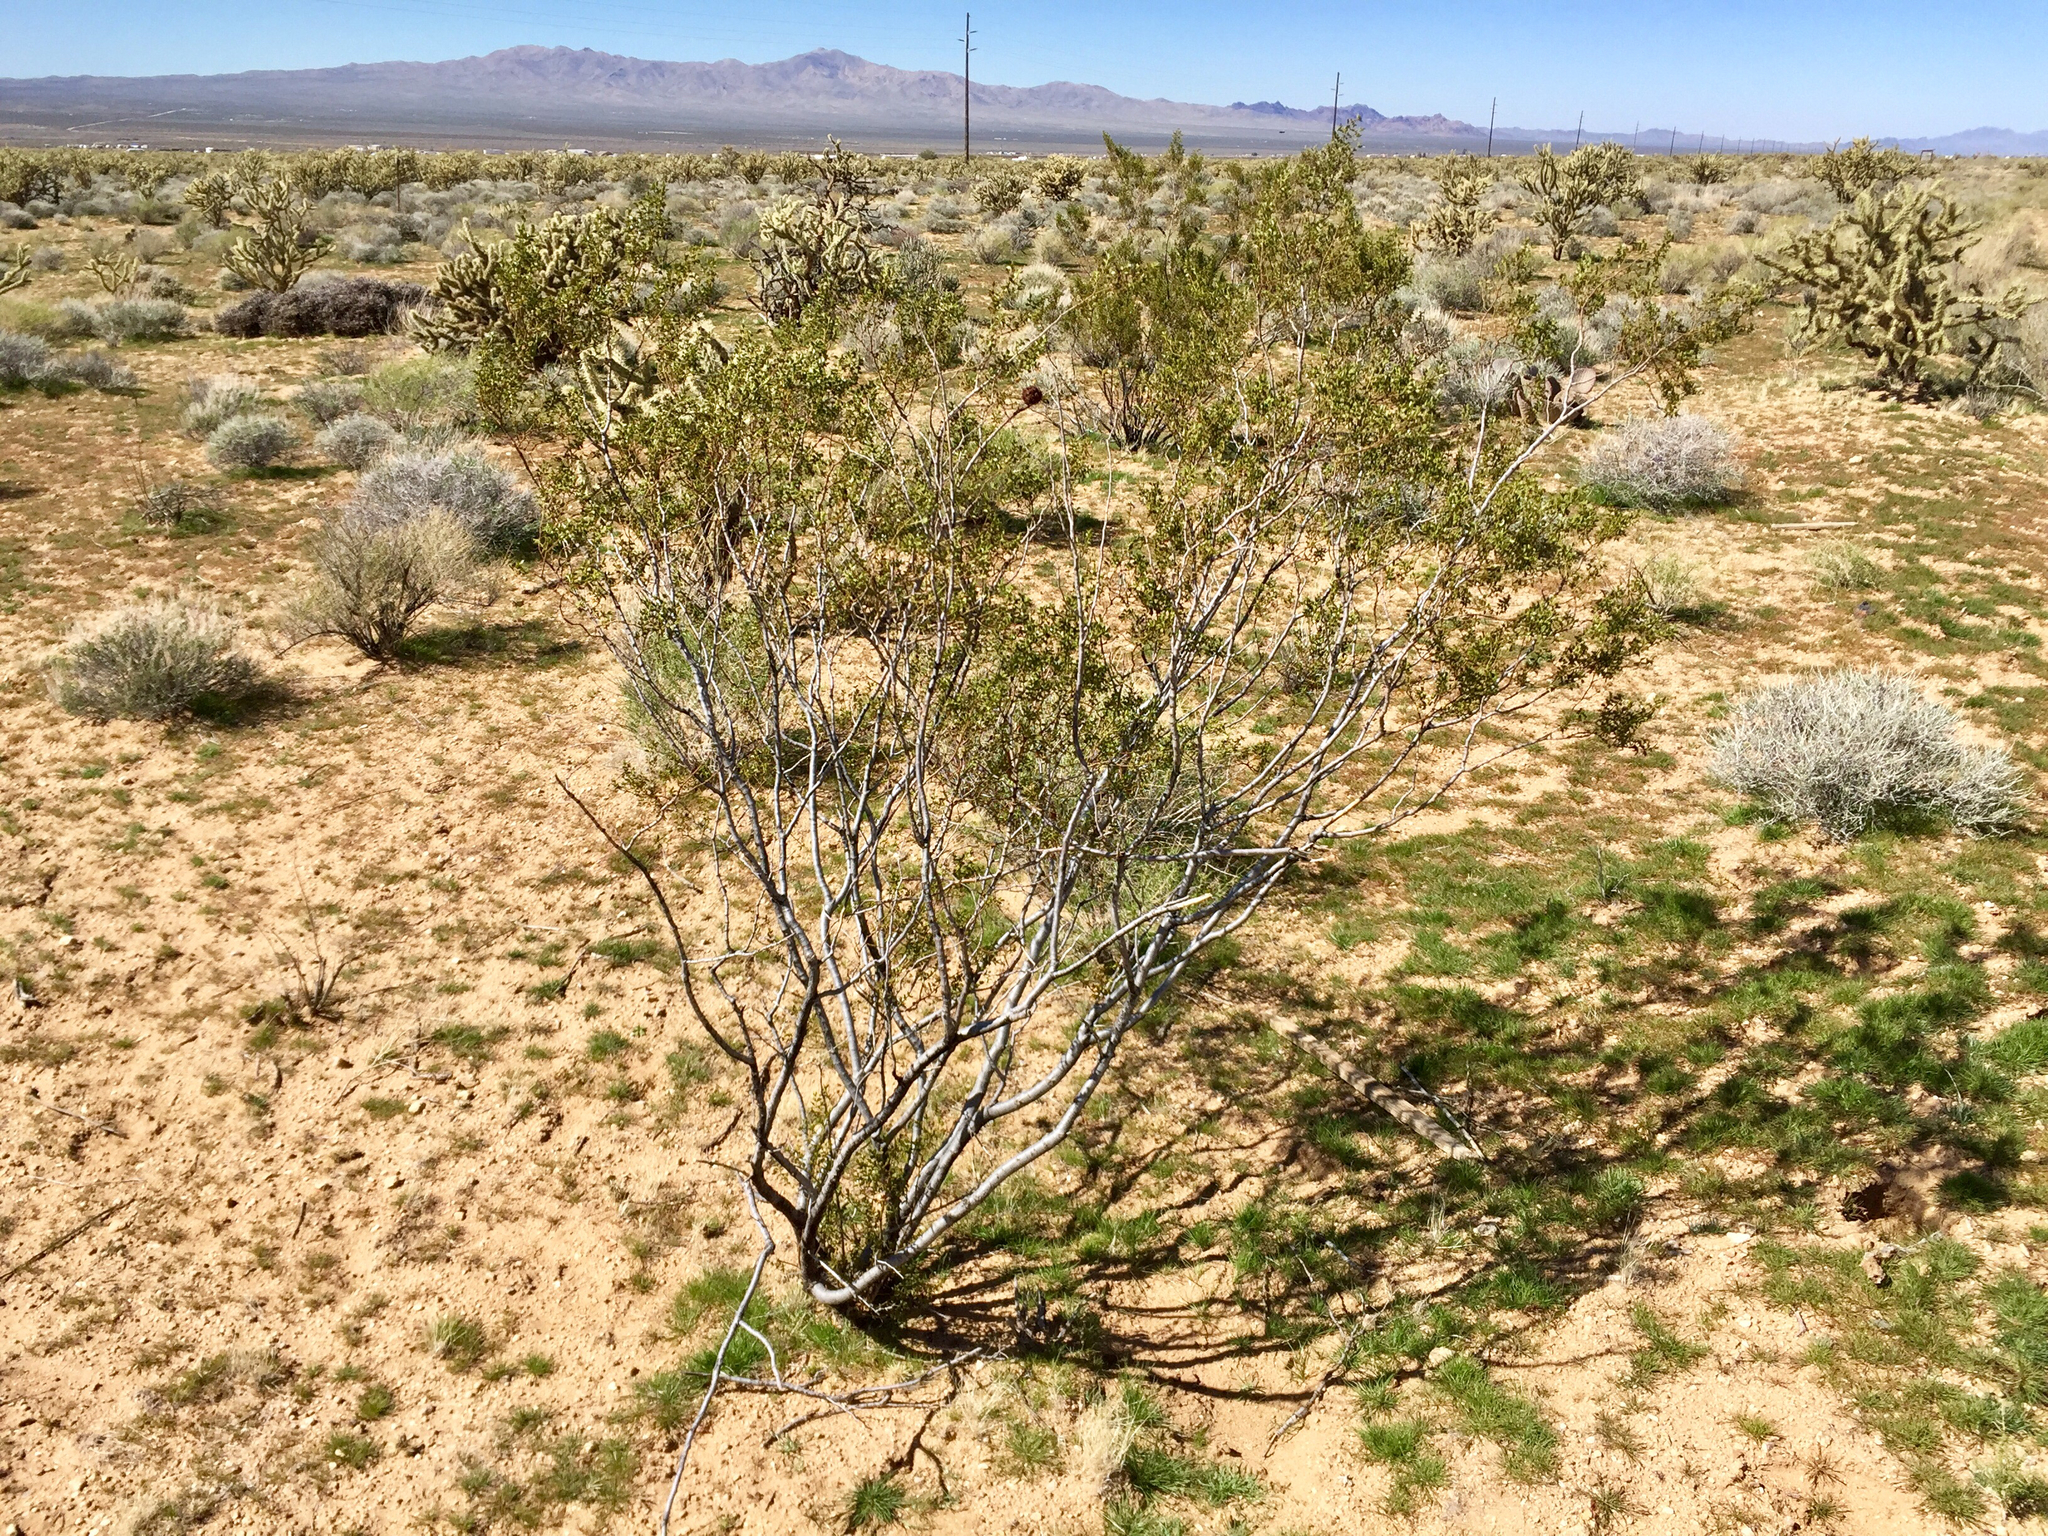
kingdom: Plantae
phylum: Tracheophyta
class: Magnoliopsida
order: Zygophyllales
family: Zygophyllaceae
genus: Larrea
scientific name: Larrea tridentata
